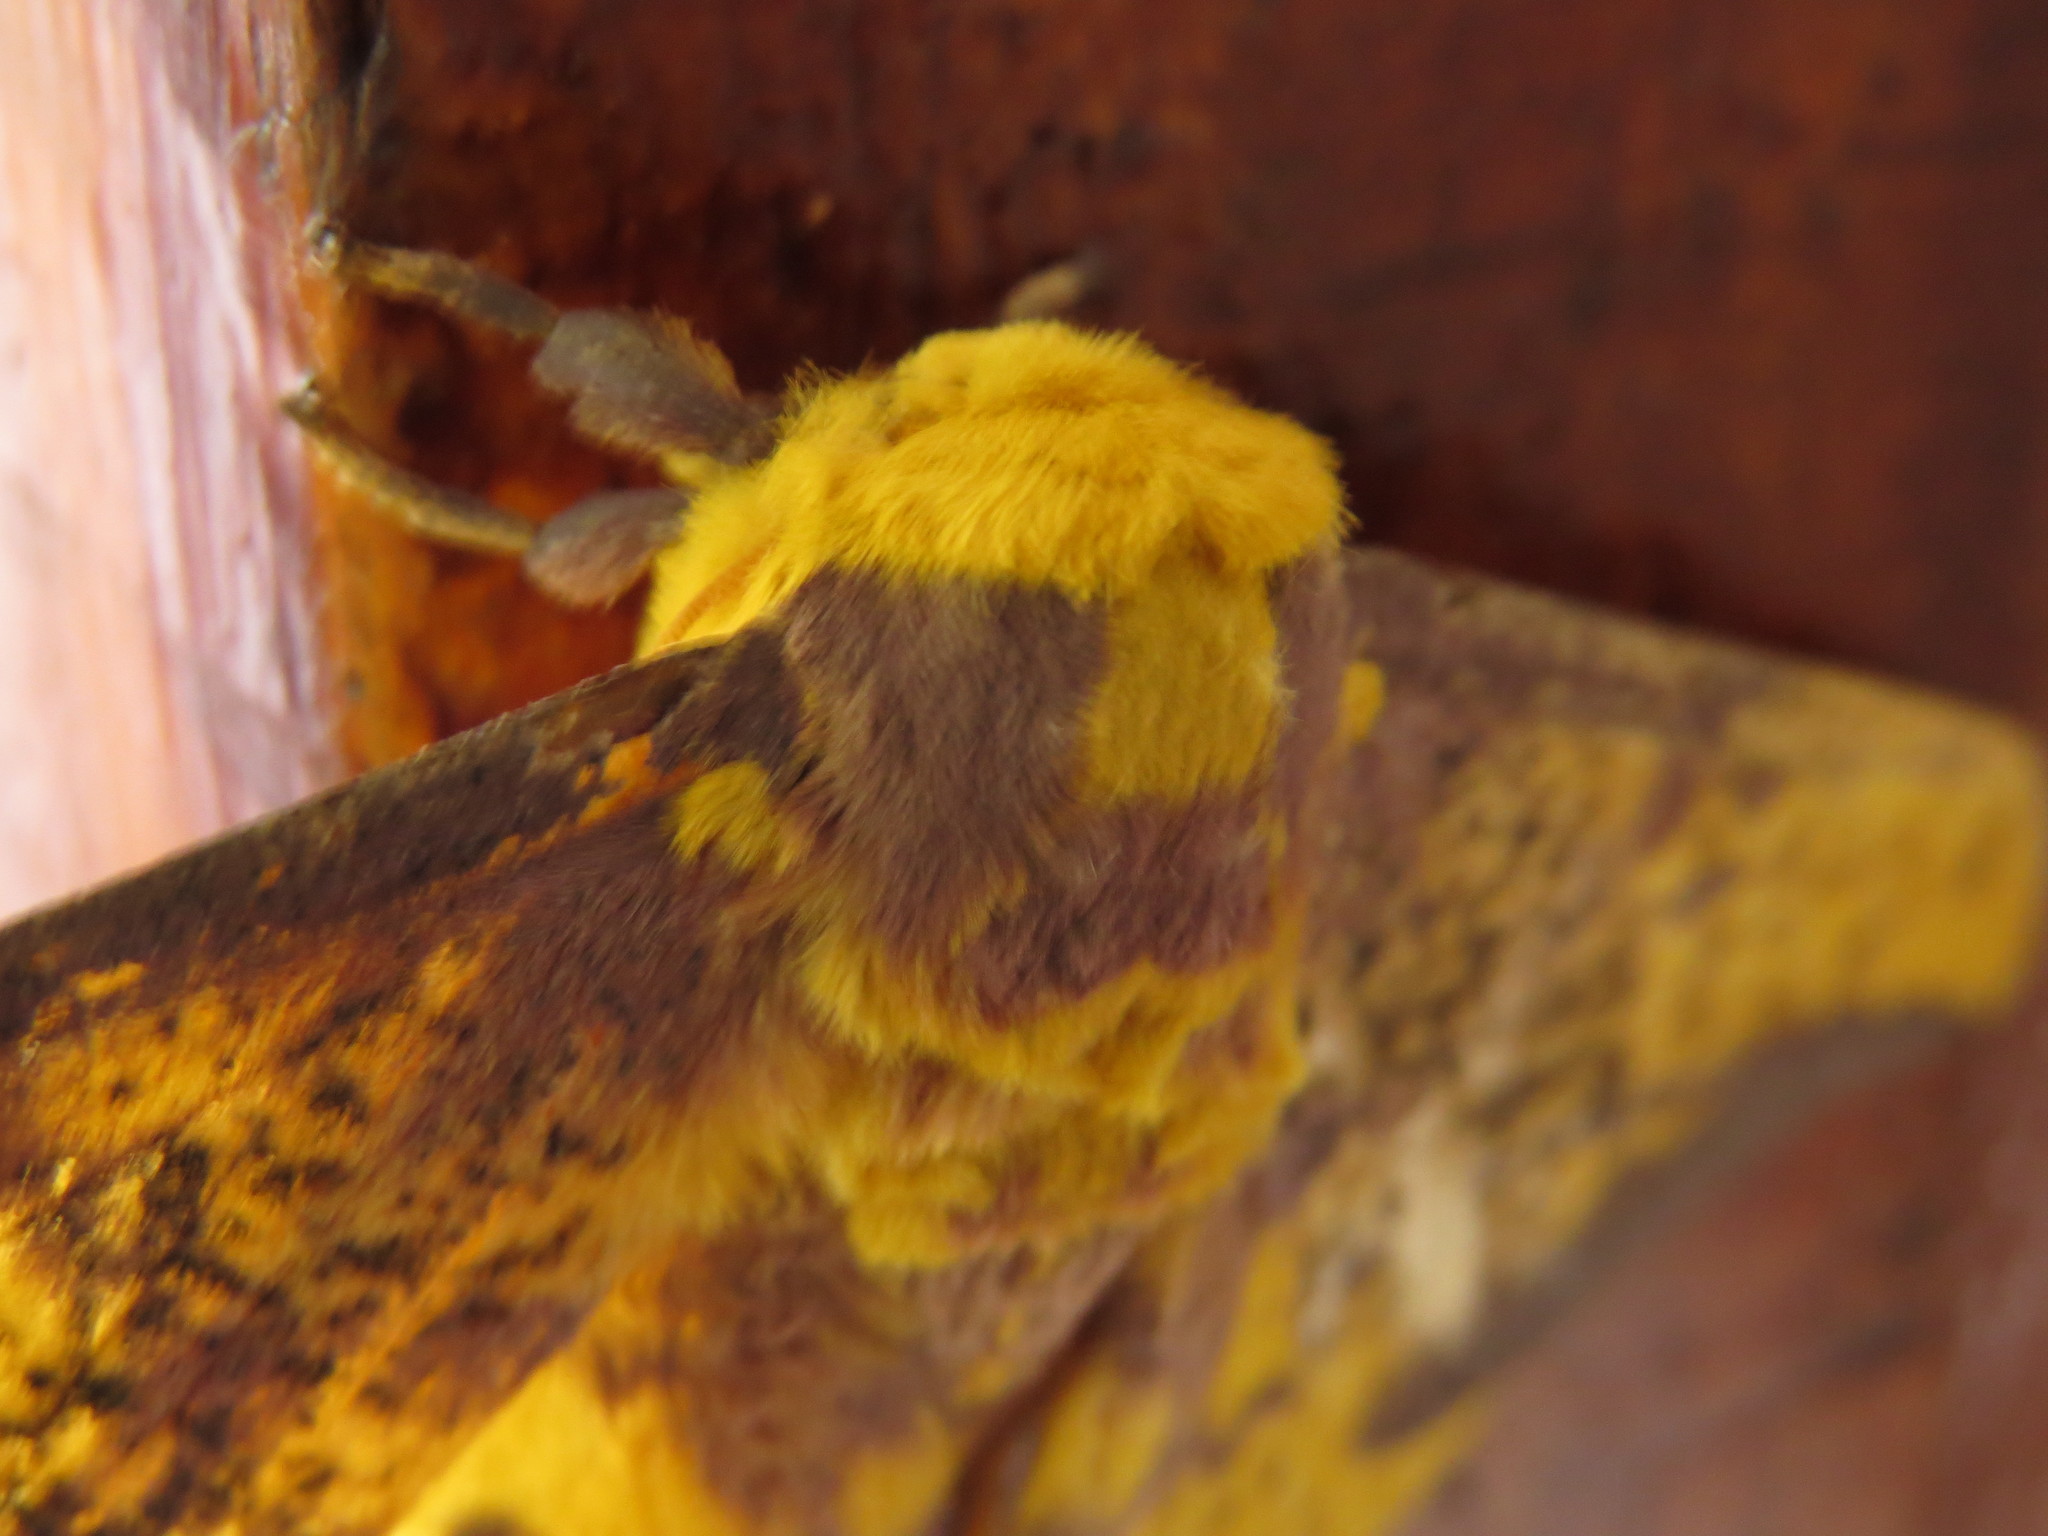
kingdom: Animalia
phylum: Arthropoda
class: Insecta
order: Lepidoptera
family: Saturniidae
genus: Eacles
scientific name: Eacles imperialis
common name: Imperial moth
